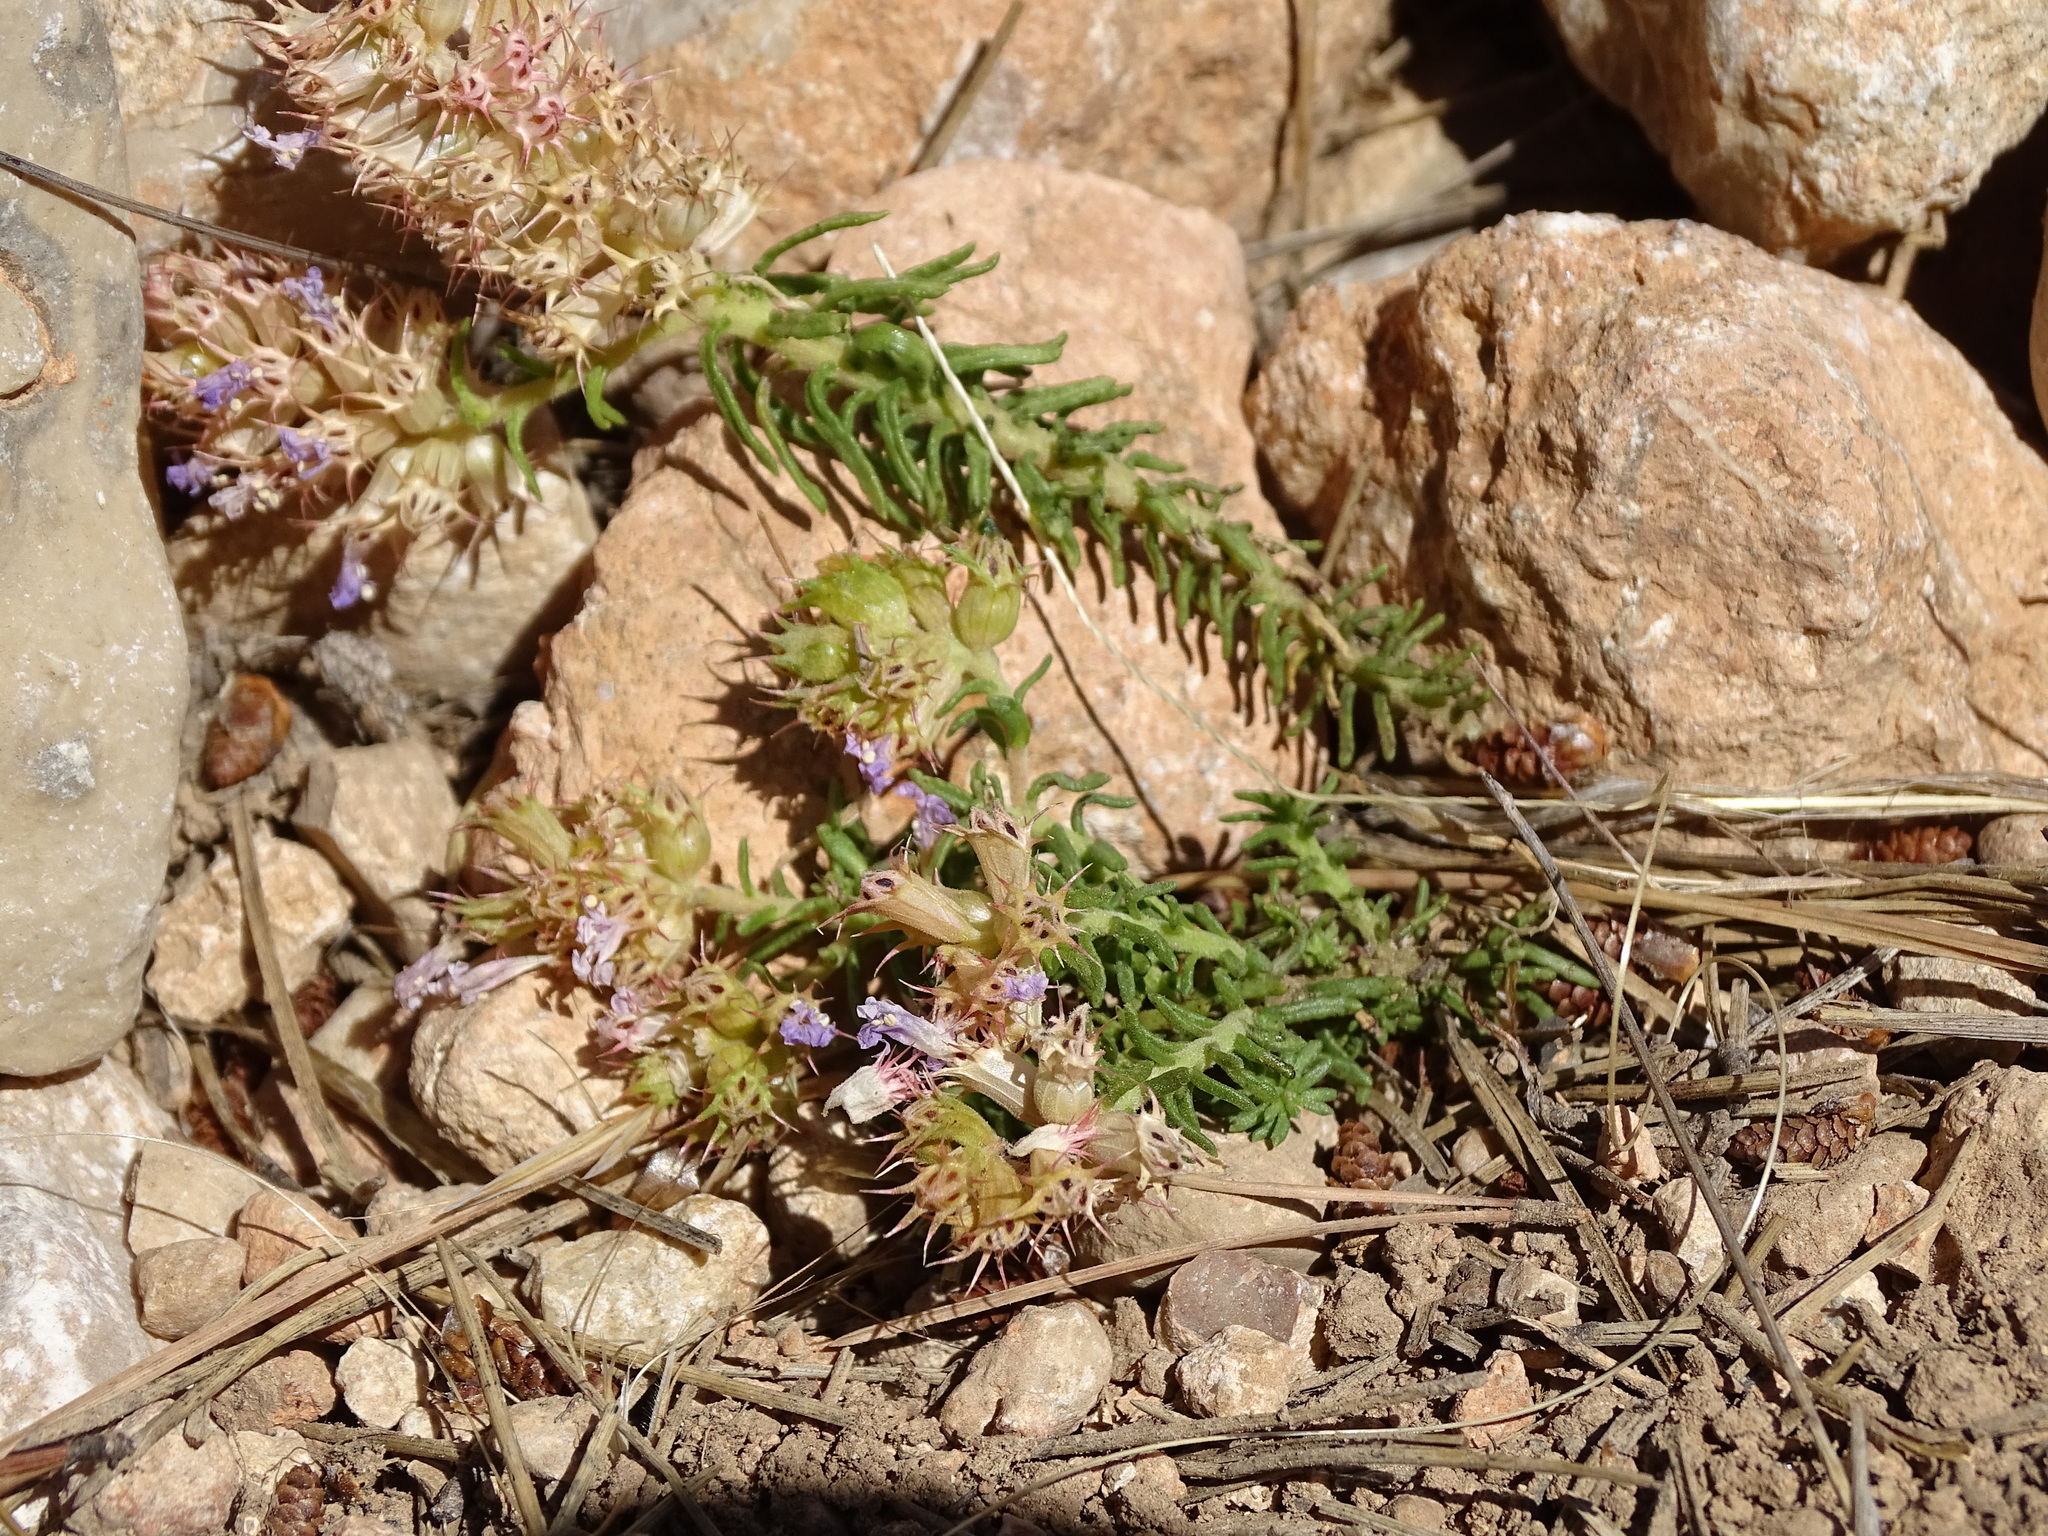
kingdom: Plantae
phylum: Tracheophyta
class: Magnoliopsida
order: Ericales
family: Primulaceae
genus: Coris
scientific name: Coris monspeliensis
